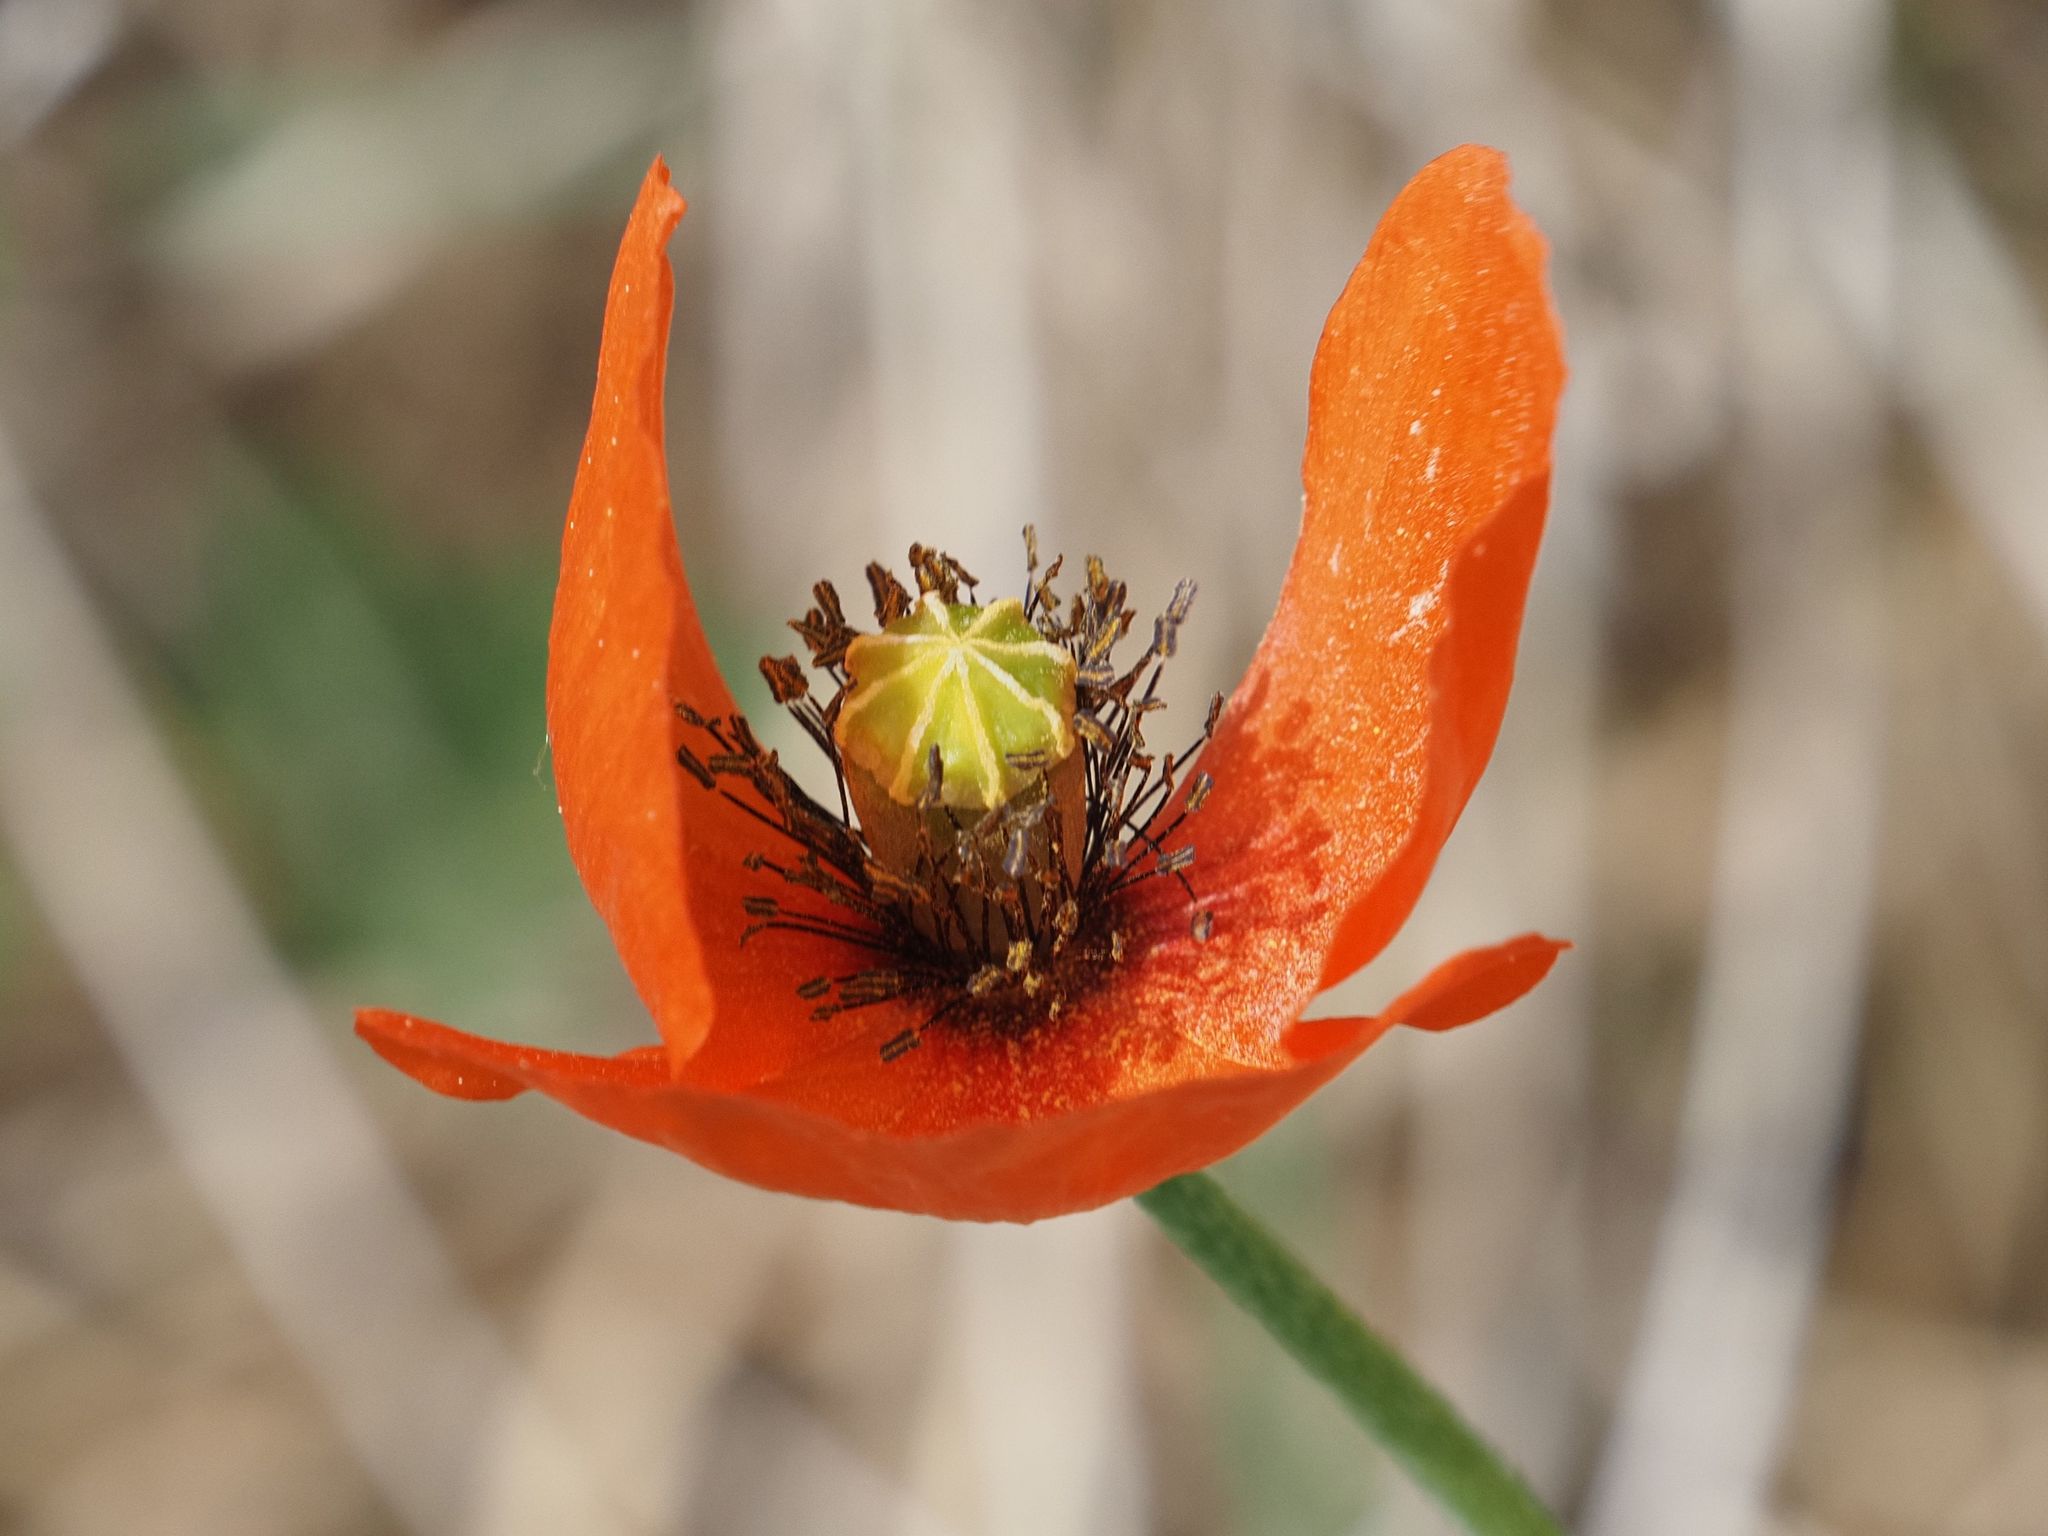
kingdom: Plantae
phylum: Tracheophyta
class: Magnoliopsida
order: Ranunculales
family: Papaveraceae
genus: Papaver
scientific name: Papaver dubium
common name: Long-headed poppy
